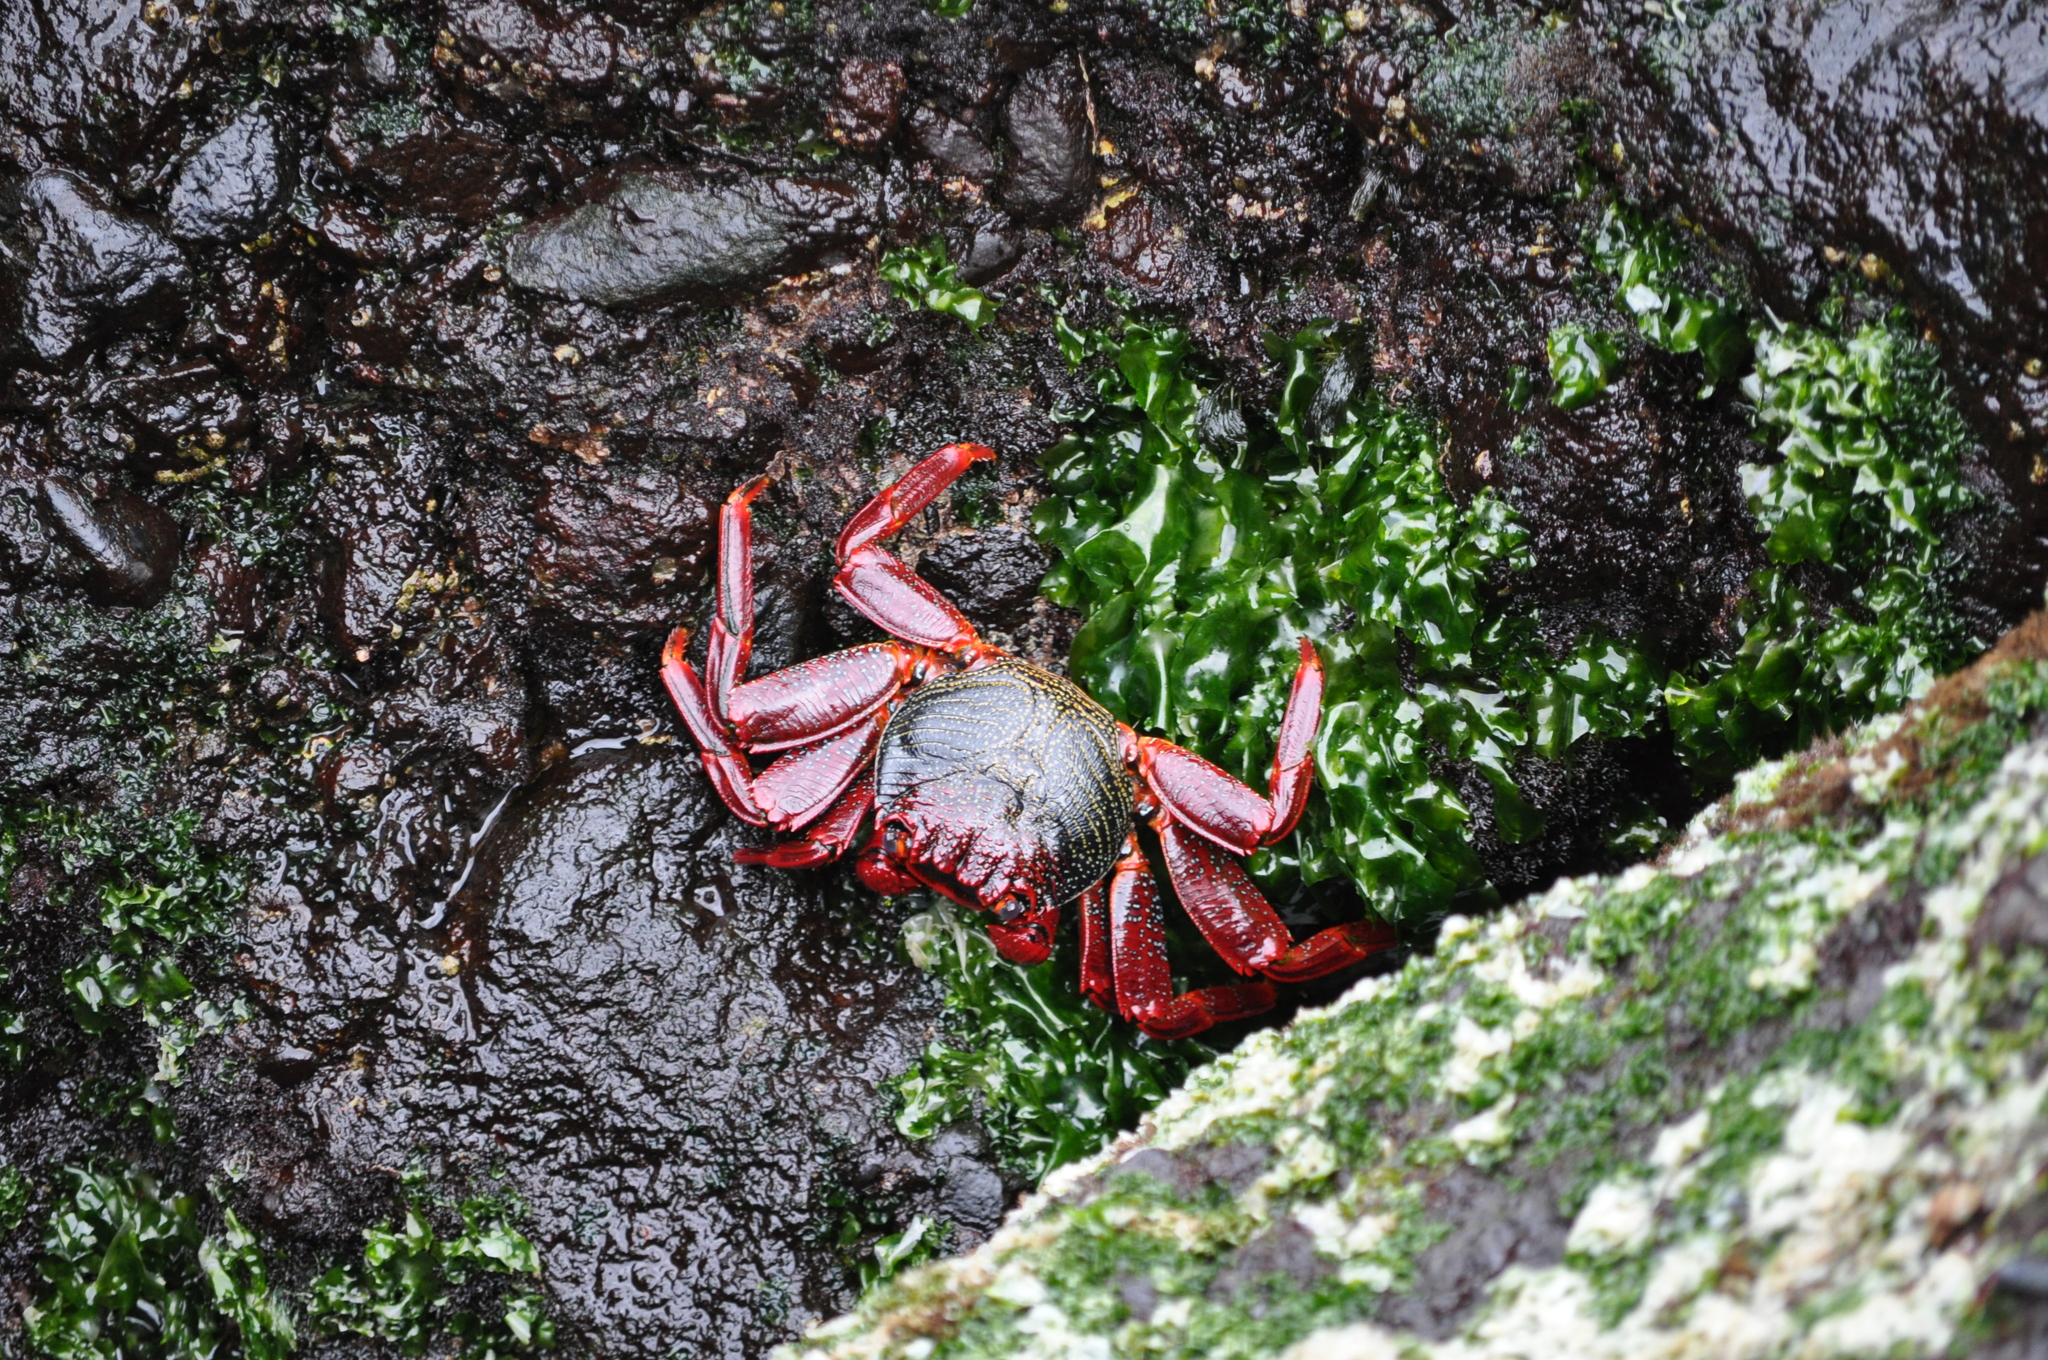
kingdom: Animalia
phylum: Arthropoda
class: Malacostraca
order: Decapoda
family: Grapsidae
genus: Grapsus
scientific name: Grapsus adscensionis
